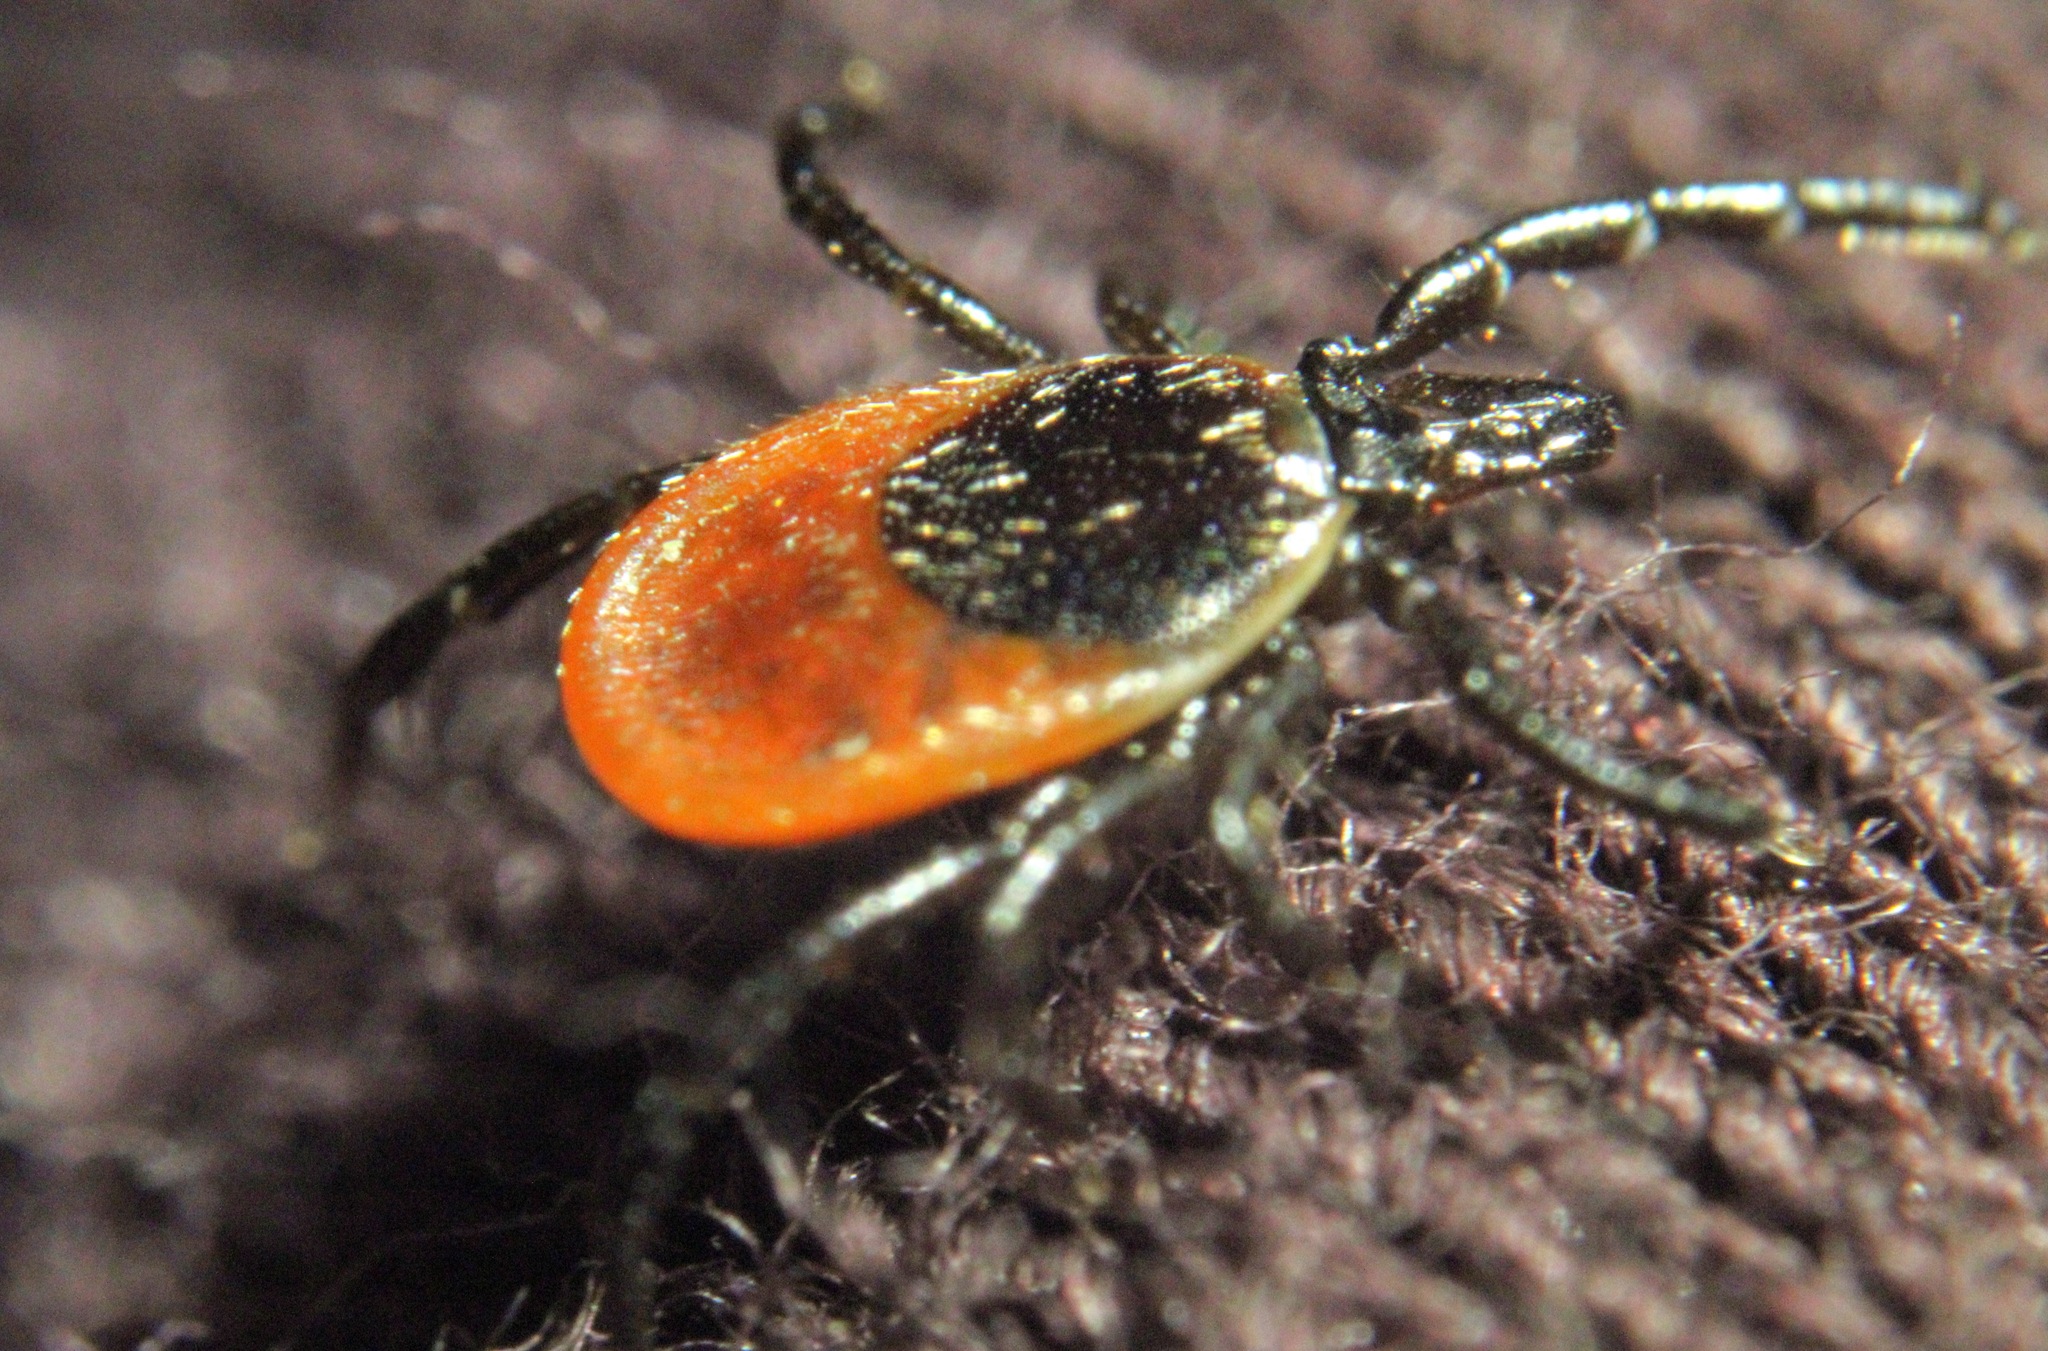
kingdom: Animalia
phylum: Arthropoda
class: Arachnida
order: Ixodida
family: Ixodidae
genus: Ixodes
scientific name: Ixodes scapularis
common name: Black legged tick
